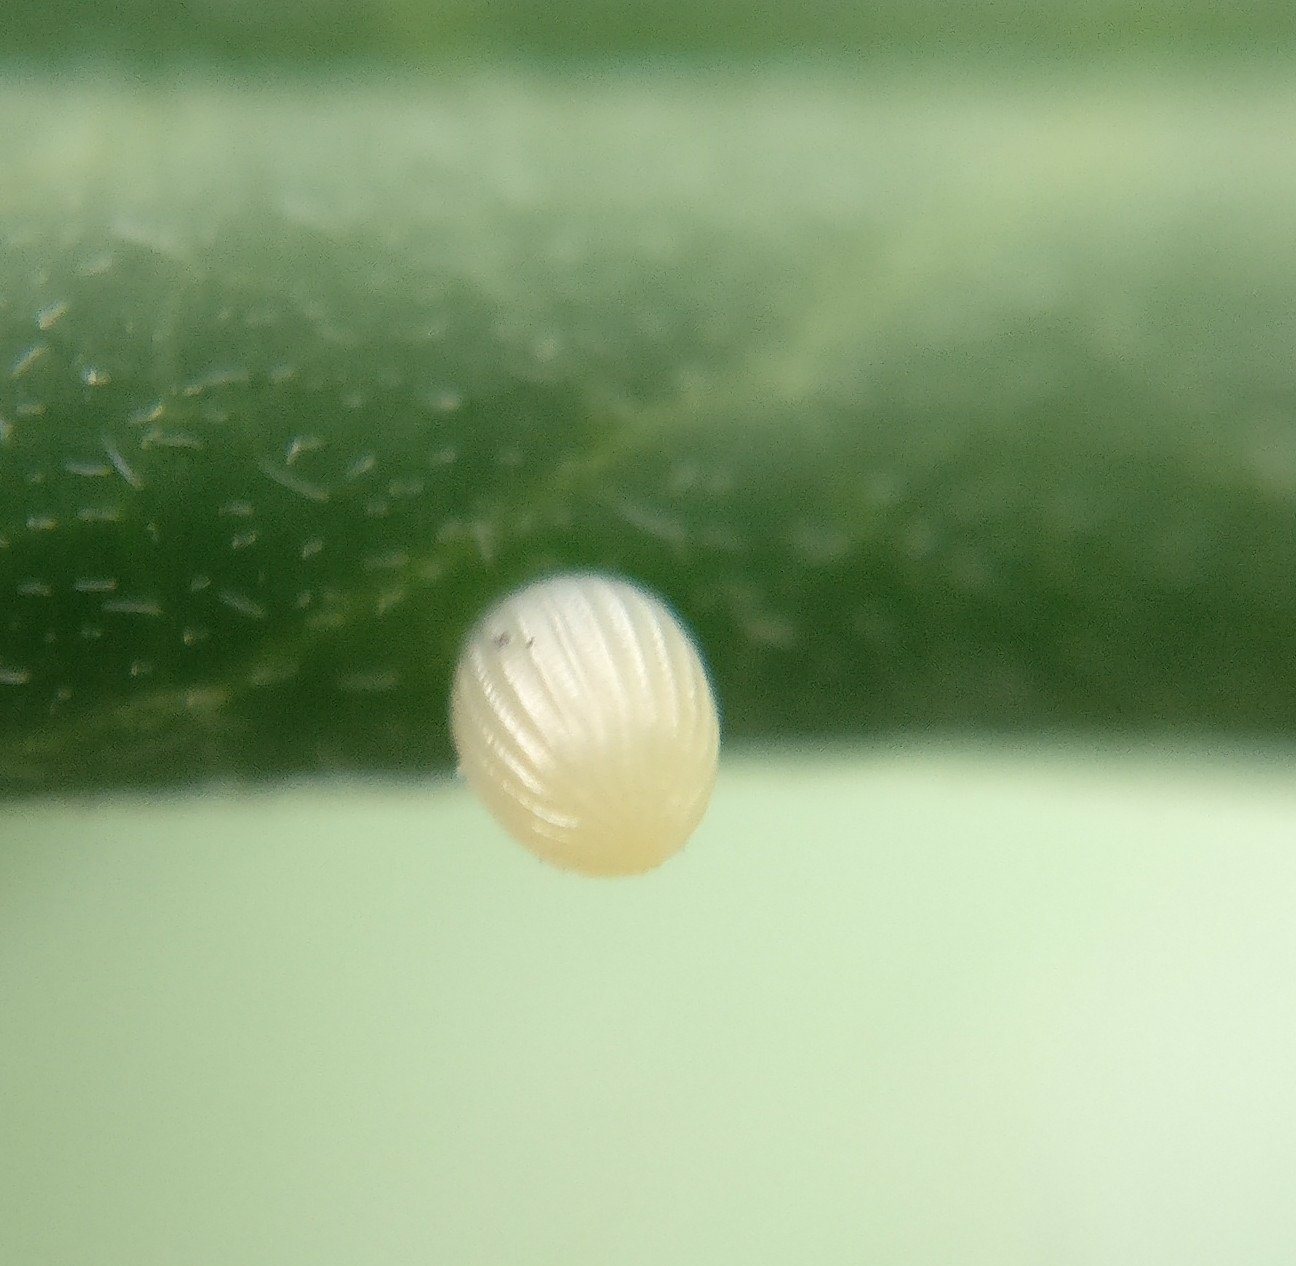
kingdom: Animalia
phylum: Arthropoda
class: Insecta
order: Lepidoptera
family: Nymphalidae
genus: Danaus
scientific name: Danaus plexippus
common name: Monarch
